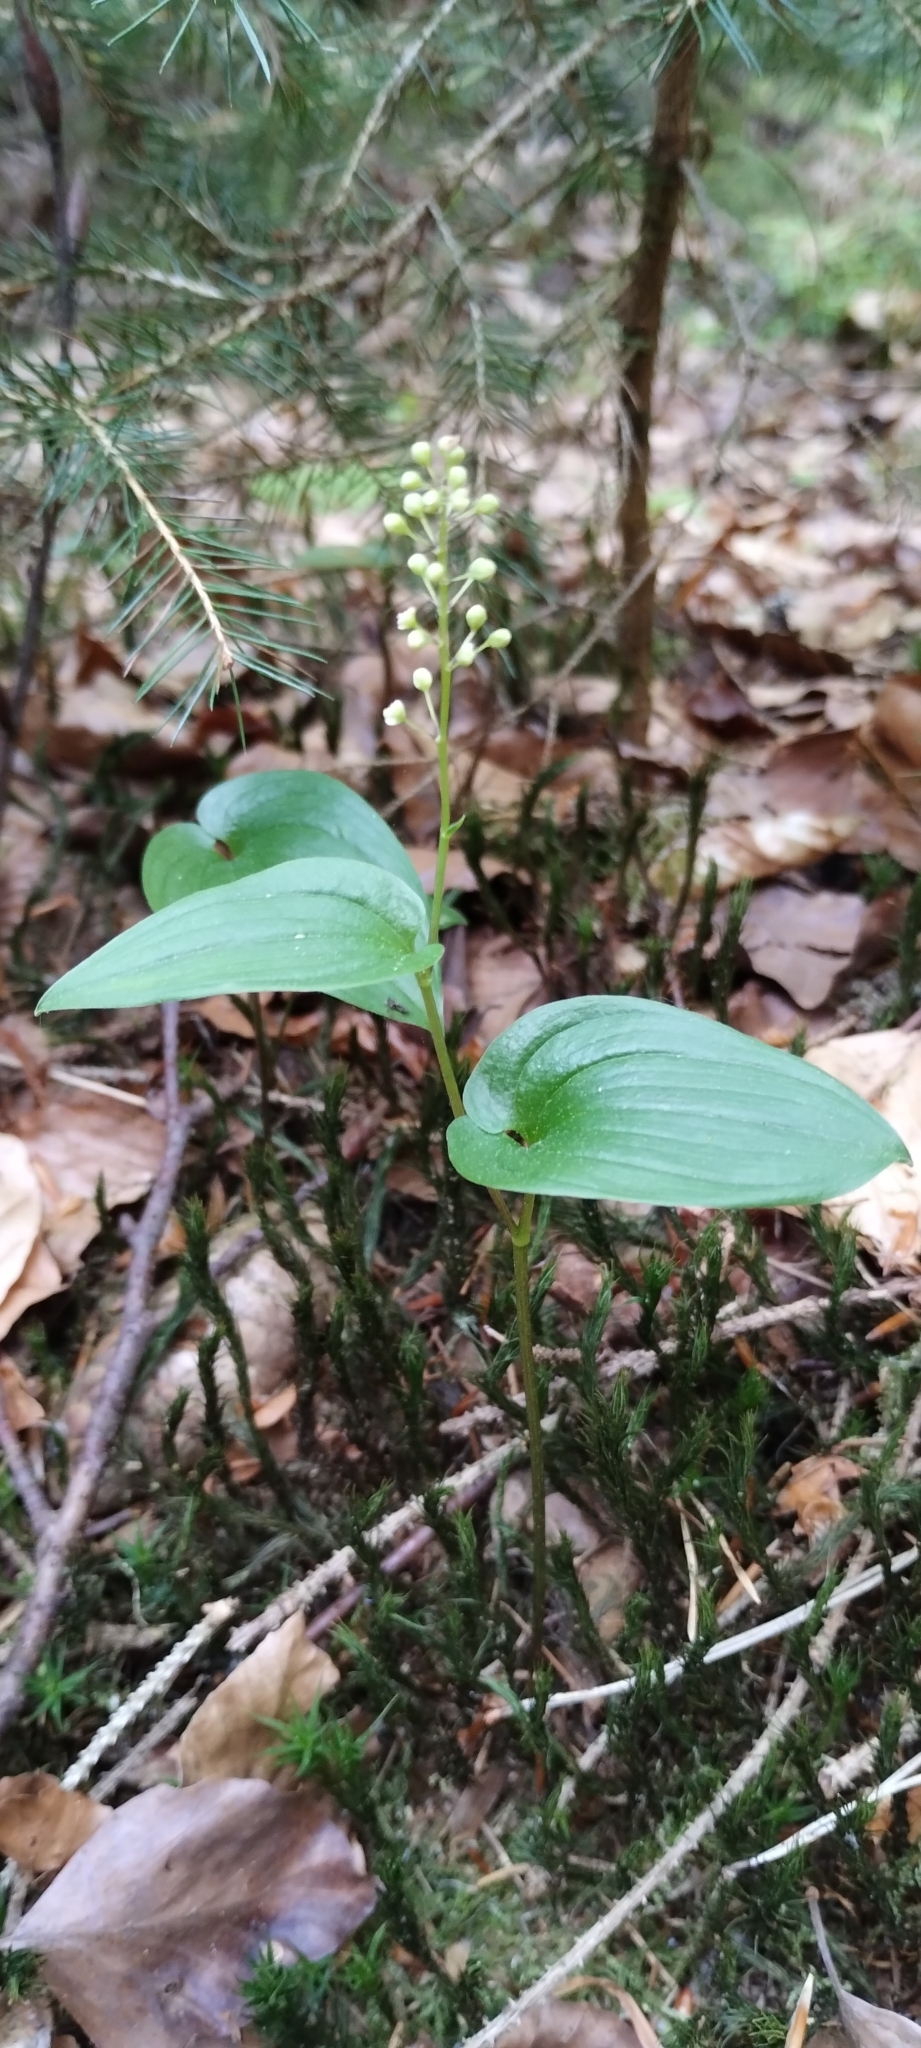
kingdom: Plantae
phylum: Tracheophyta
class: Liliopsida
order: Asparagales
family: Asparagaceae
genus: Maianthemum
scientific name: Maianthemum bifolium
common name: May lily
